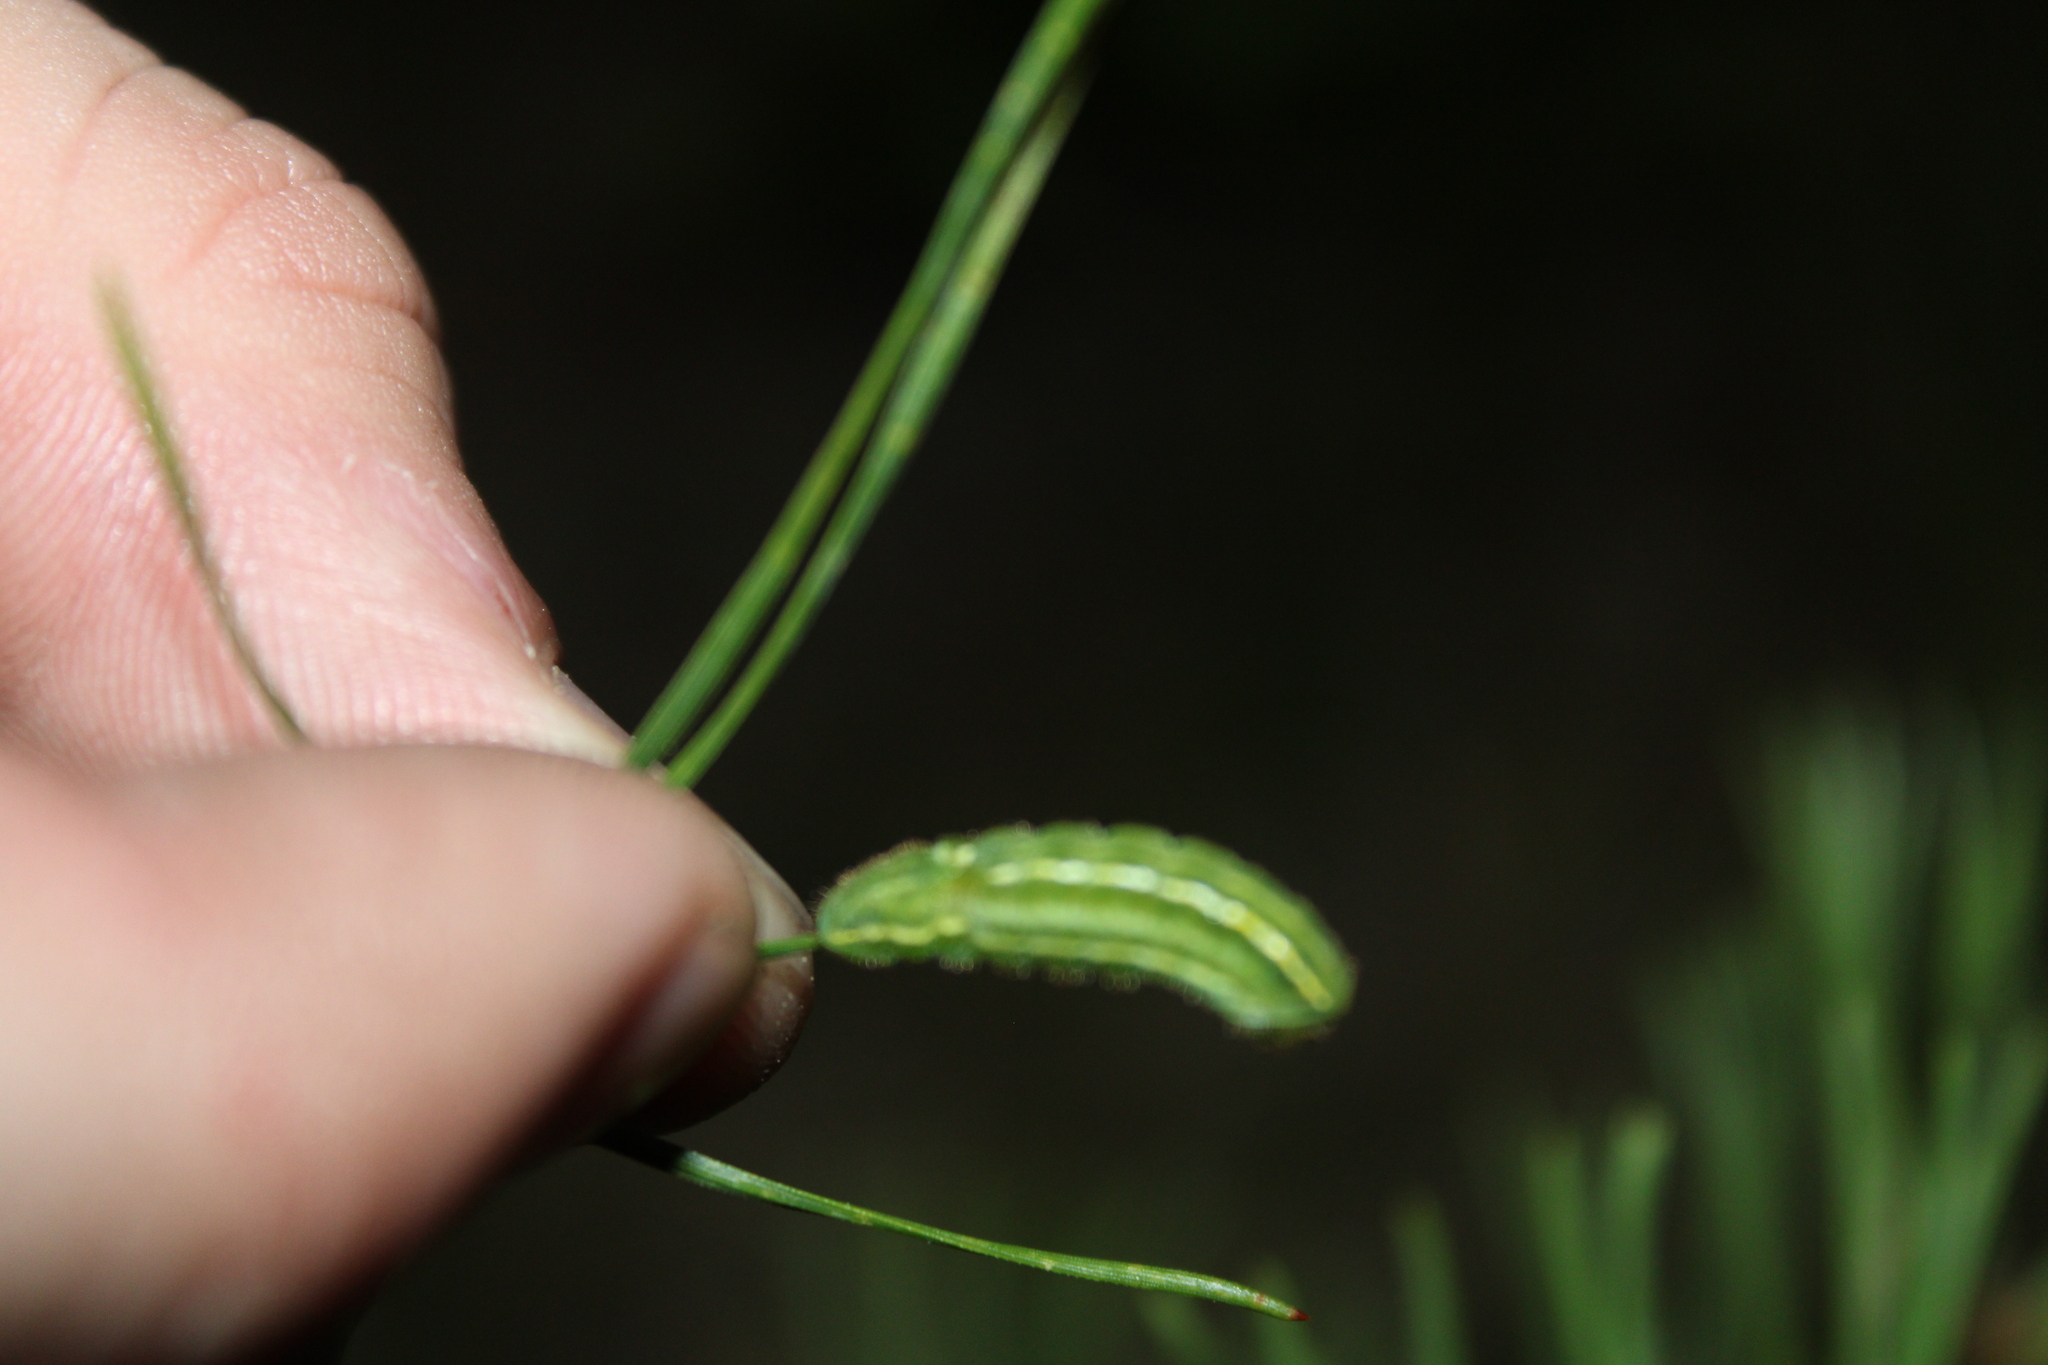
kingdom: Animalia
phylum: Arthropoda
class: Insecta
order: Lepidoptera
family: Lycaenidae
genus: Incisalia
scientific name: Incisalia niphon
